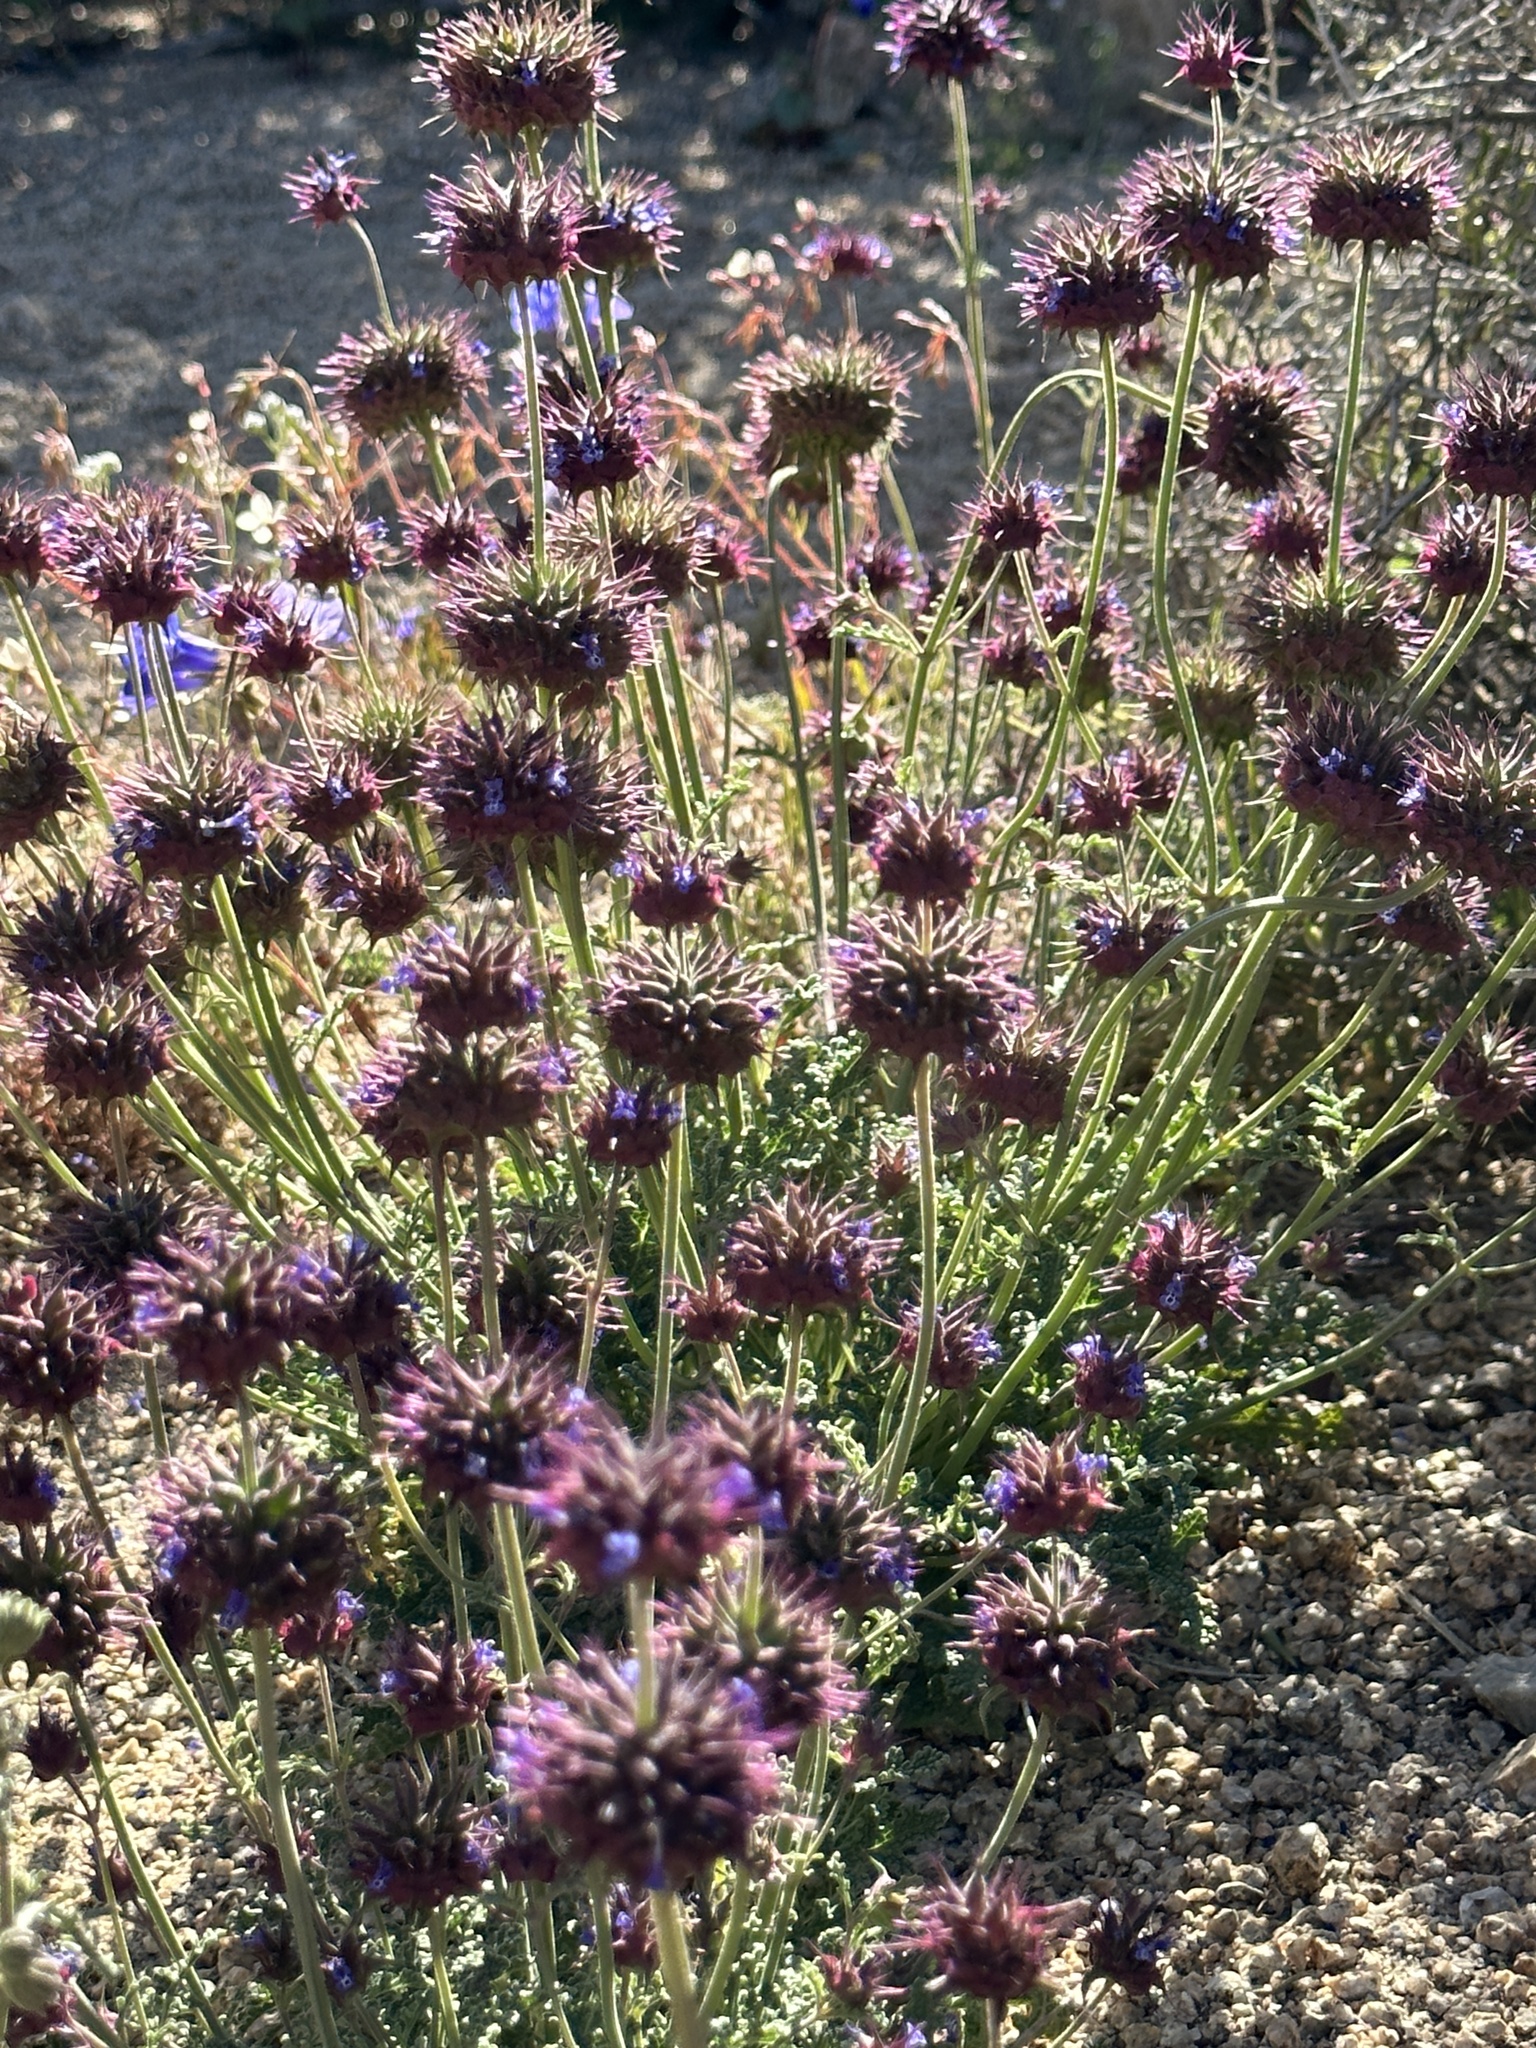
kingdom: Plantae
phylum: Tracheophyta
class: Magnoliopsida
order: Lamiales
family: Lamiaceae
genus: Salvia
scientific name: Salvia columbariae
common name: Chia
